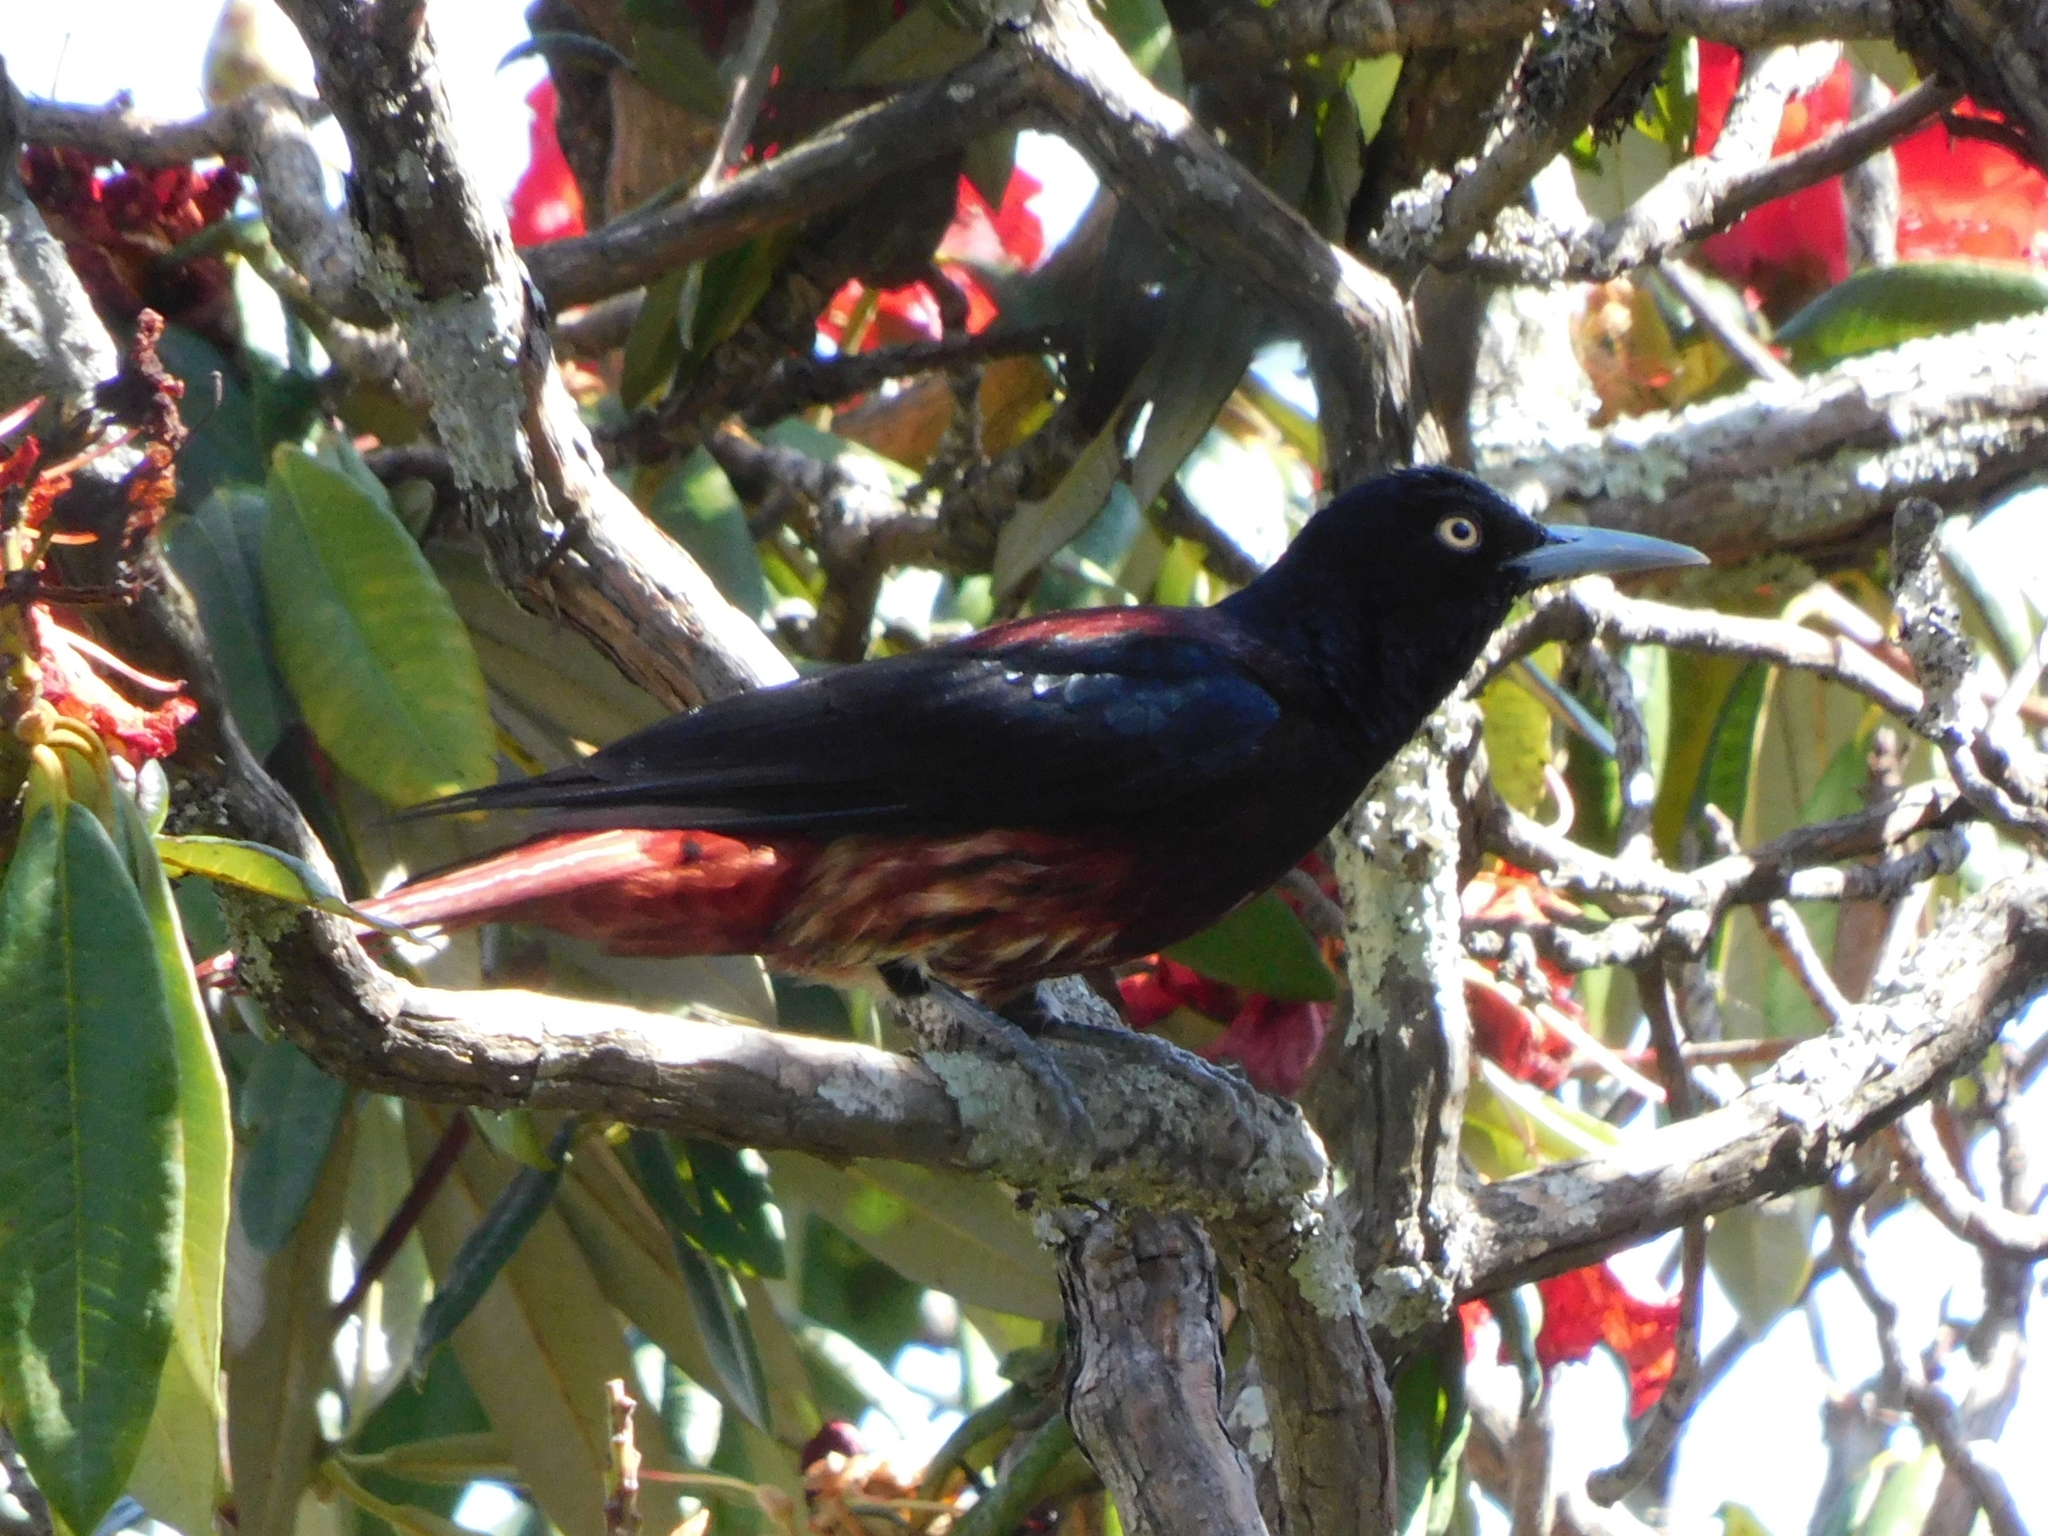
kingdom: Animalia
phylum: Chordata
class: Aves
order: Passeriformes
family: Oriolidae
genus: Oriolus
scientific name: Oriolus traillii
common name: Maroon oriole
